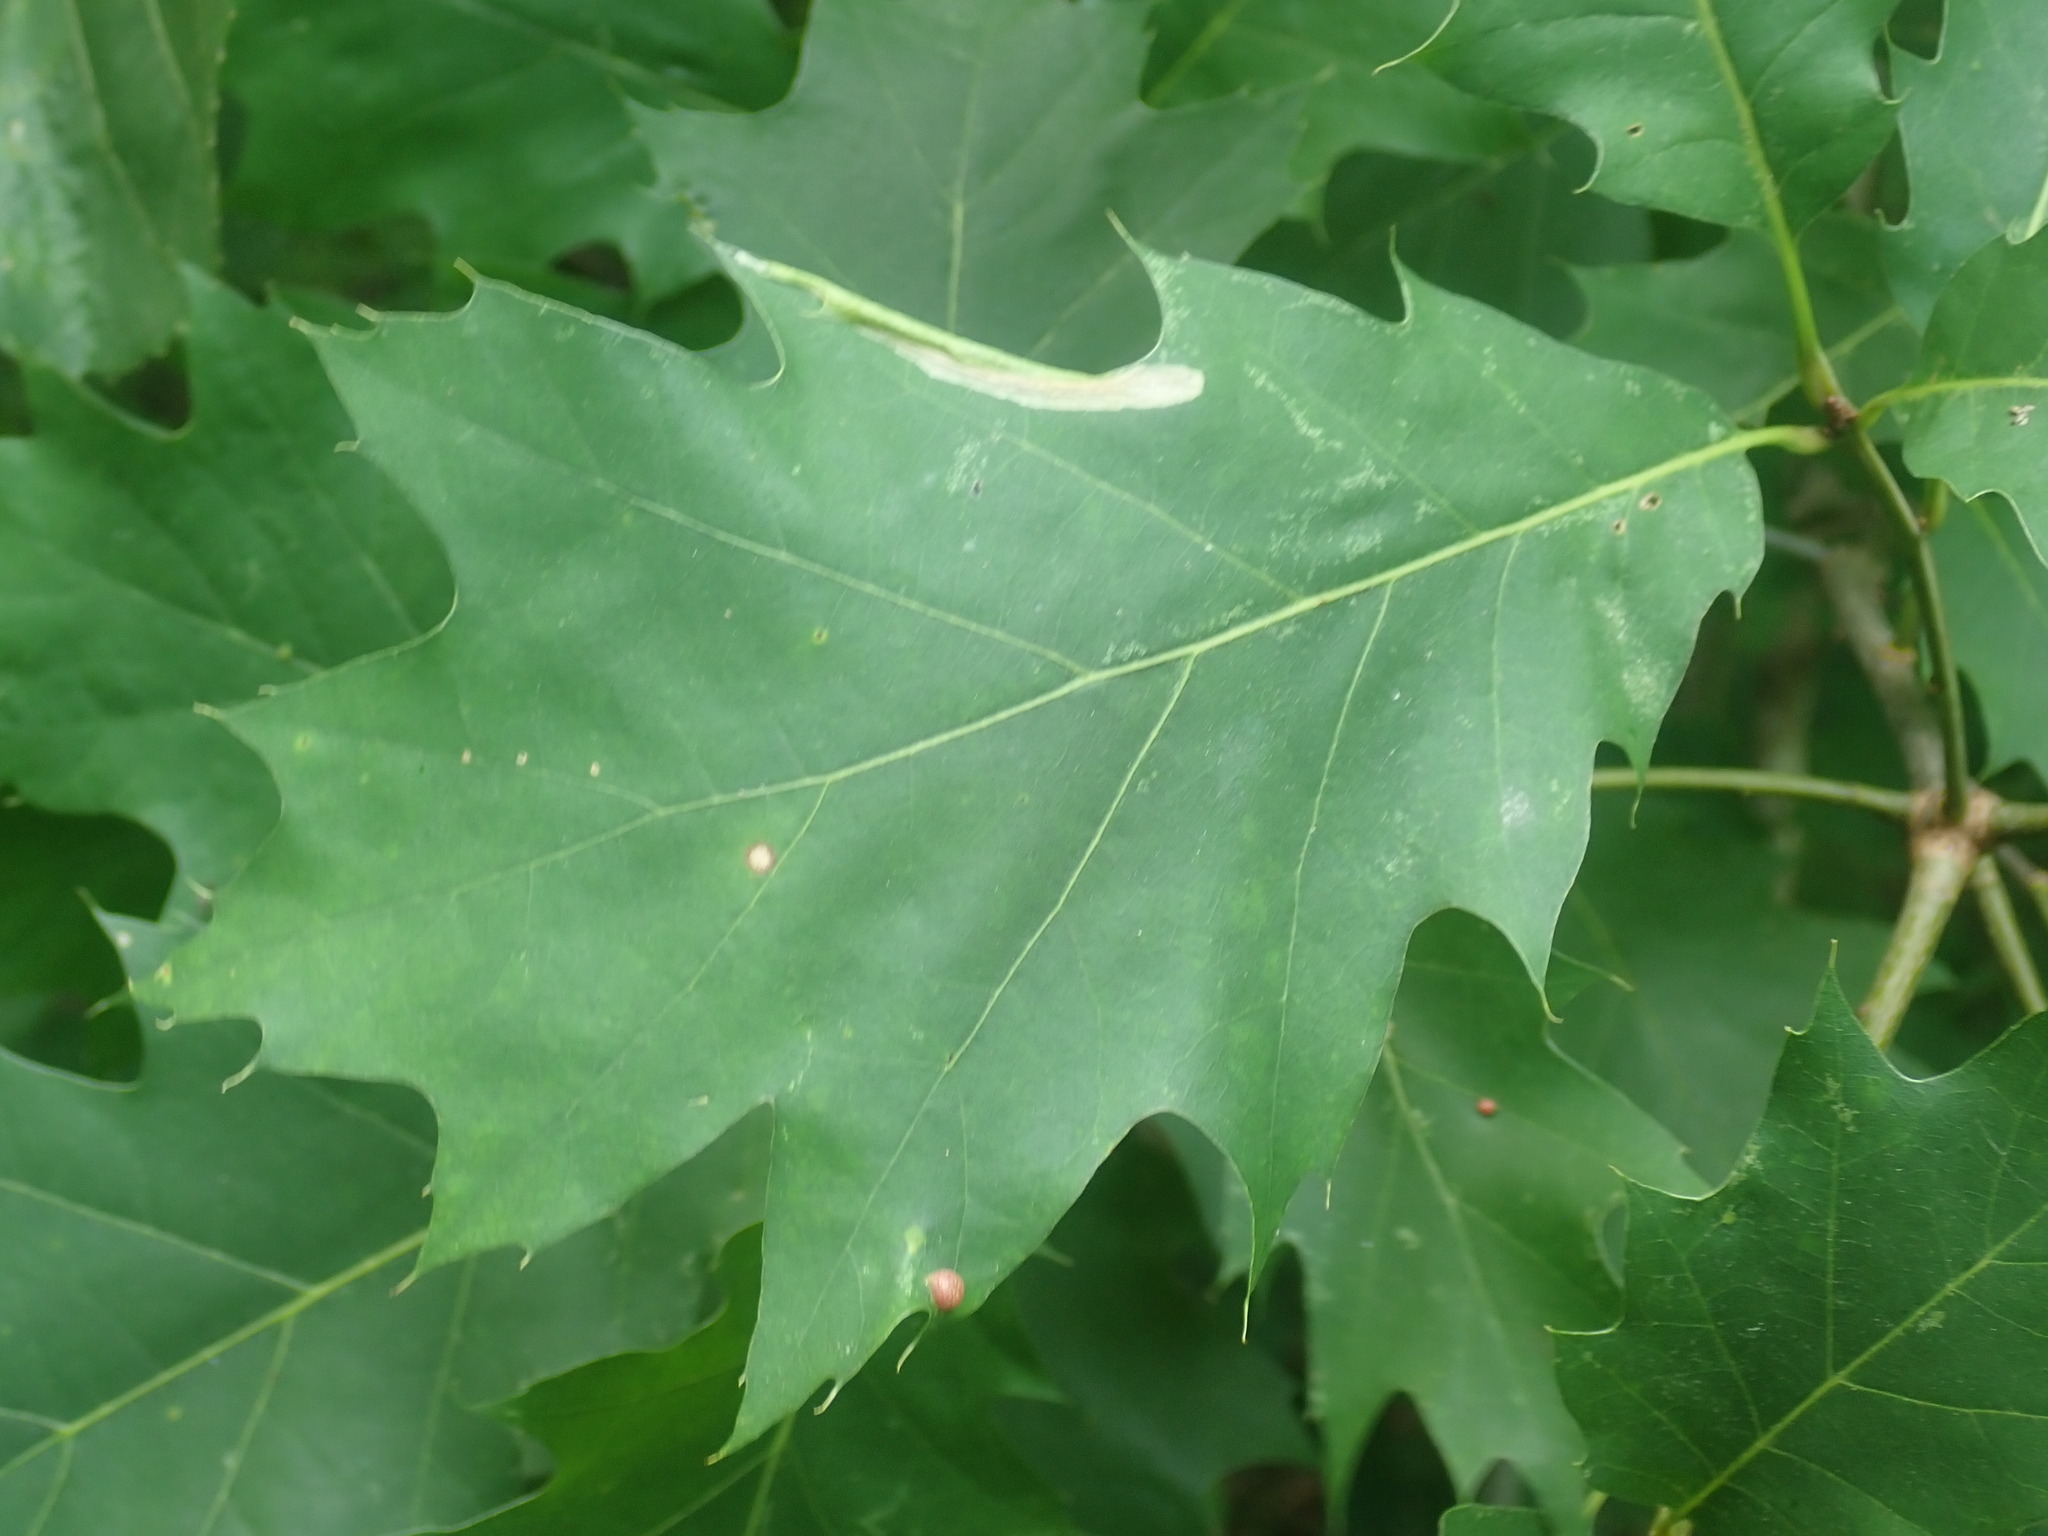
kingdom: Plantae
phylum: Tracheophyta
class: Magnoliopsida
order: Fagales
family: Fagaceae
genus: Quercus
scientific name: Quercus rubra
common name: Red oak
